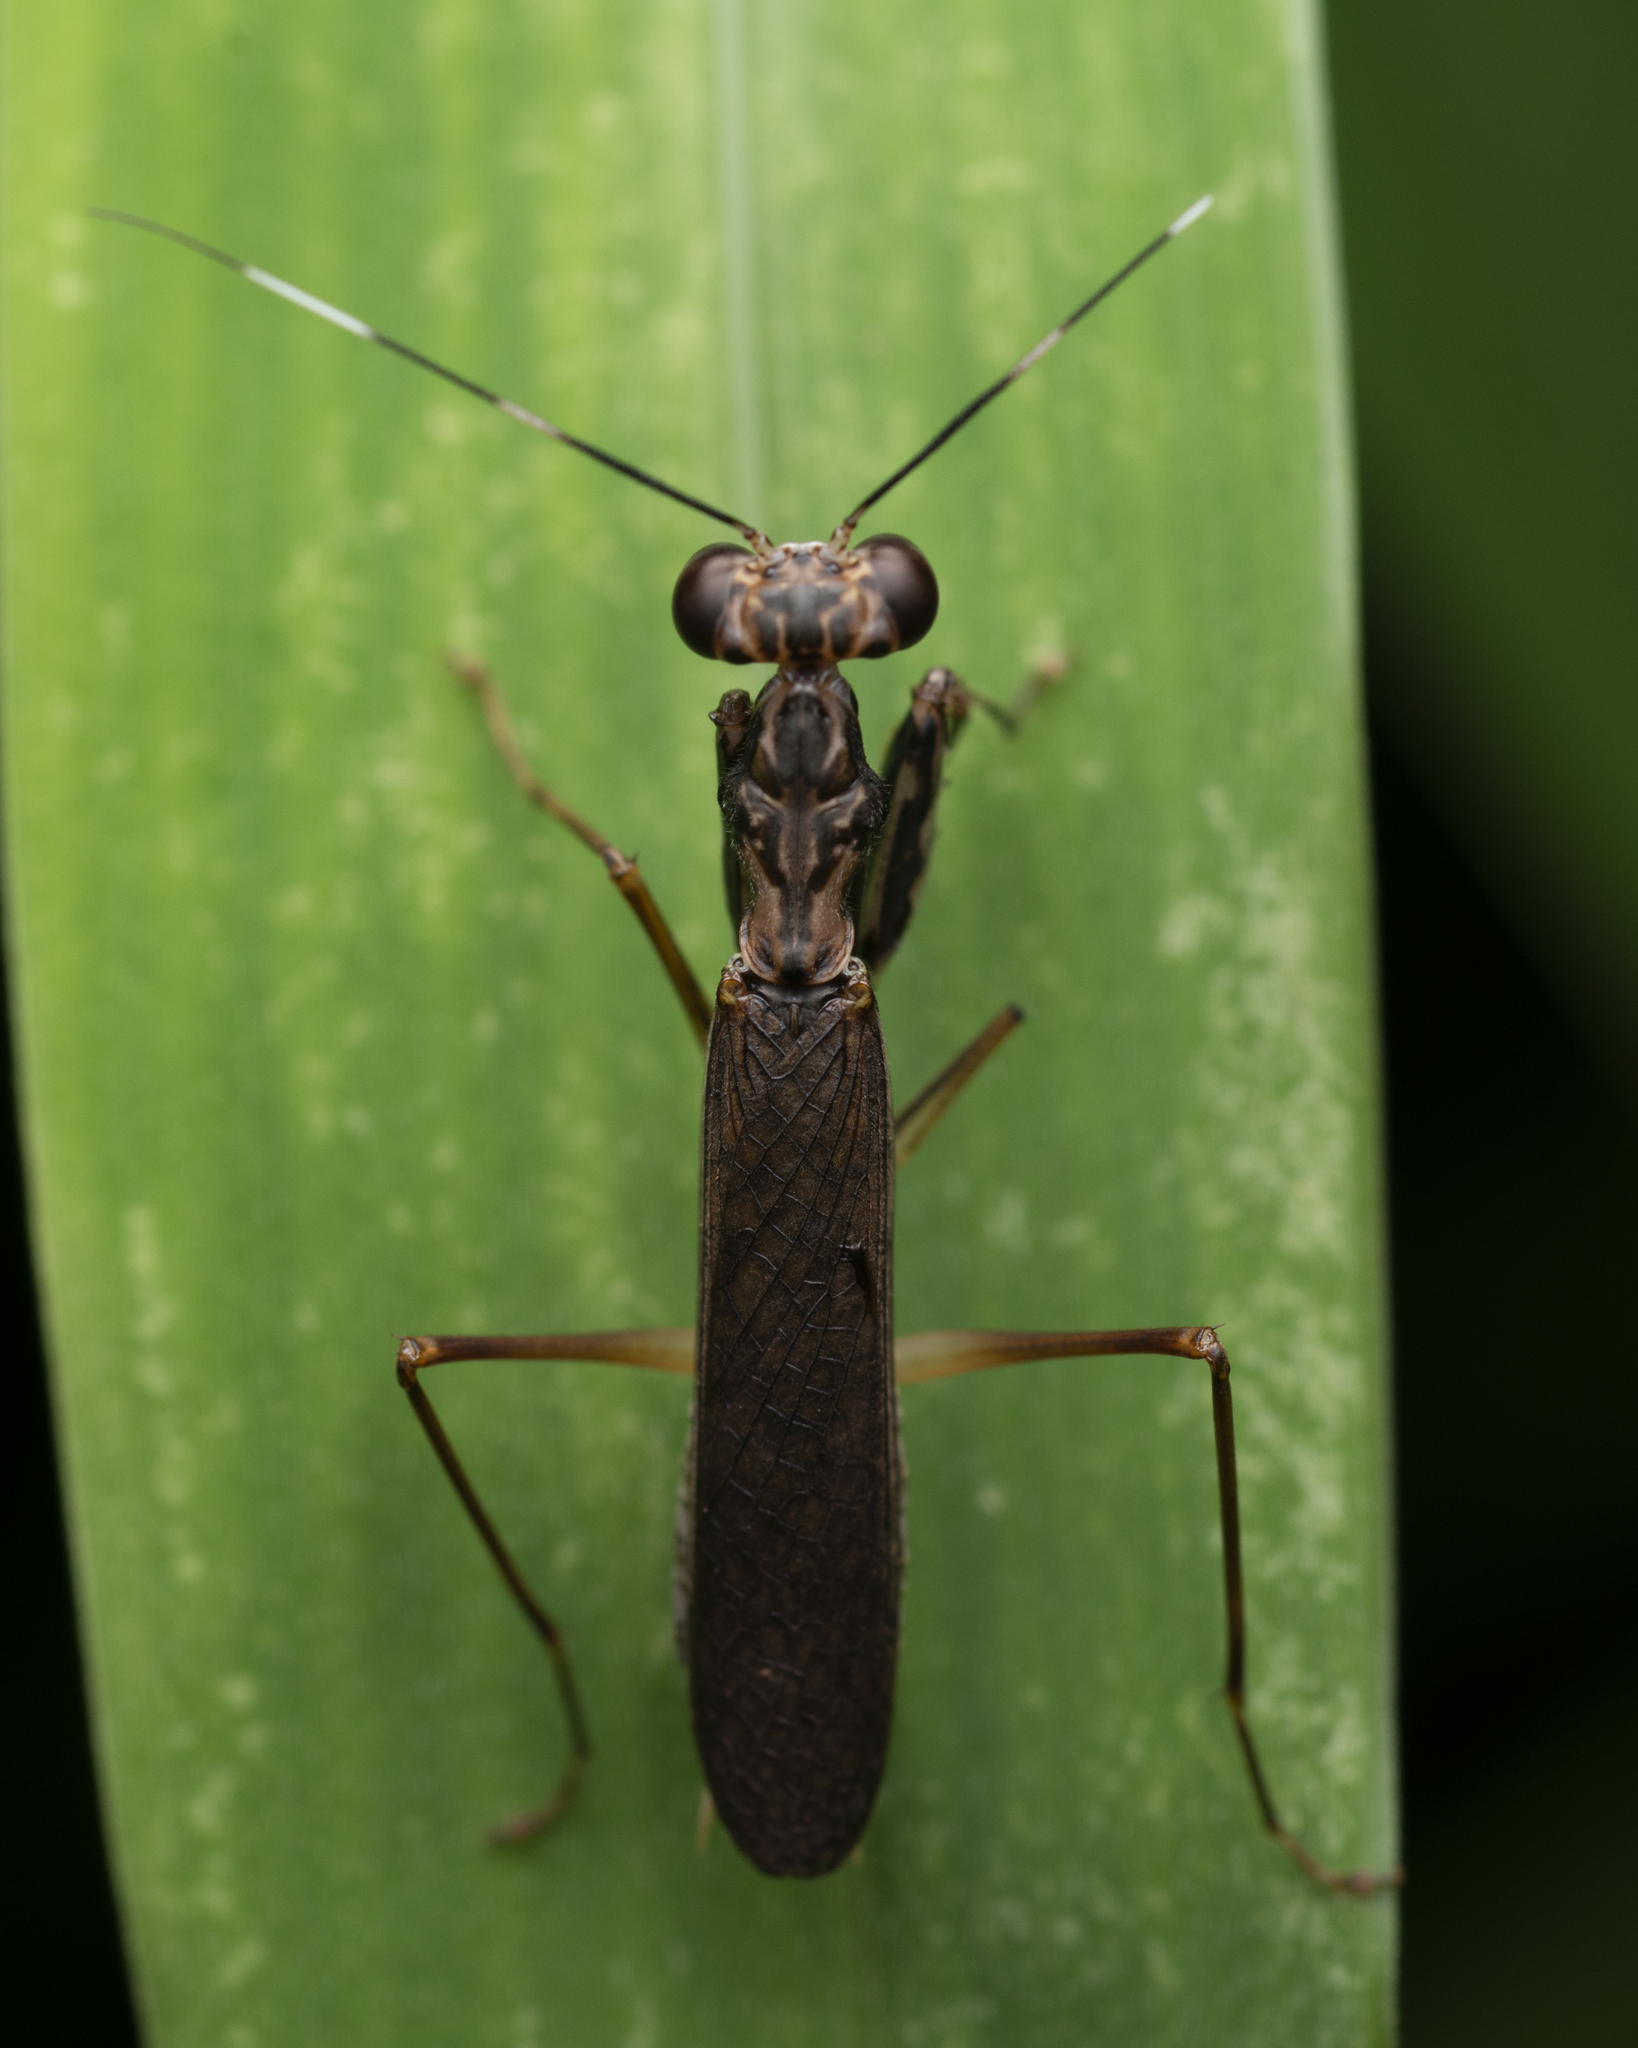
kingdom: Animalia
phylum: Arthropoda
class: Insecta
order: Mantodea
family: Gonypetidae
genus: Spilomantis
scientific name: Spilomantis occipitalis
